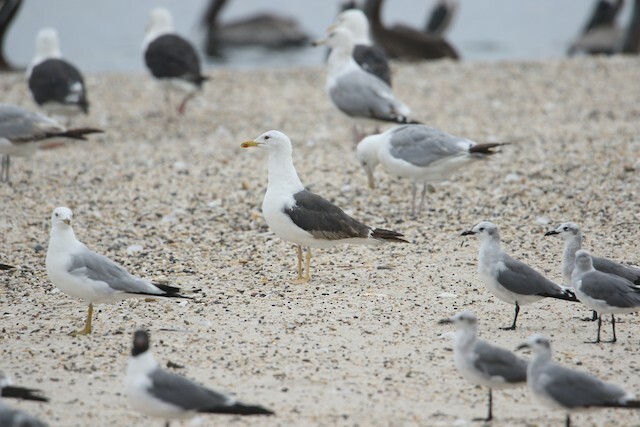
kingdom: Animalia
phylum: Chordata
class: Aves
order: Charadriiformes
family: Laridae
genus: Larus
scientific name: Larus fuscus
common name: Lesser black-backed gull
